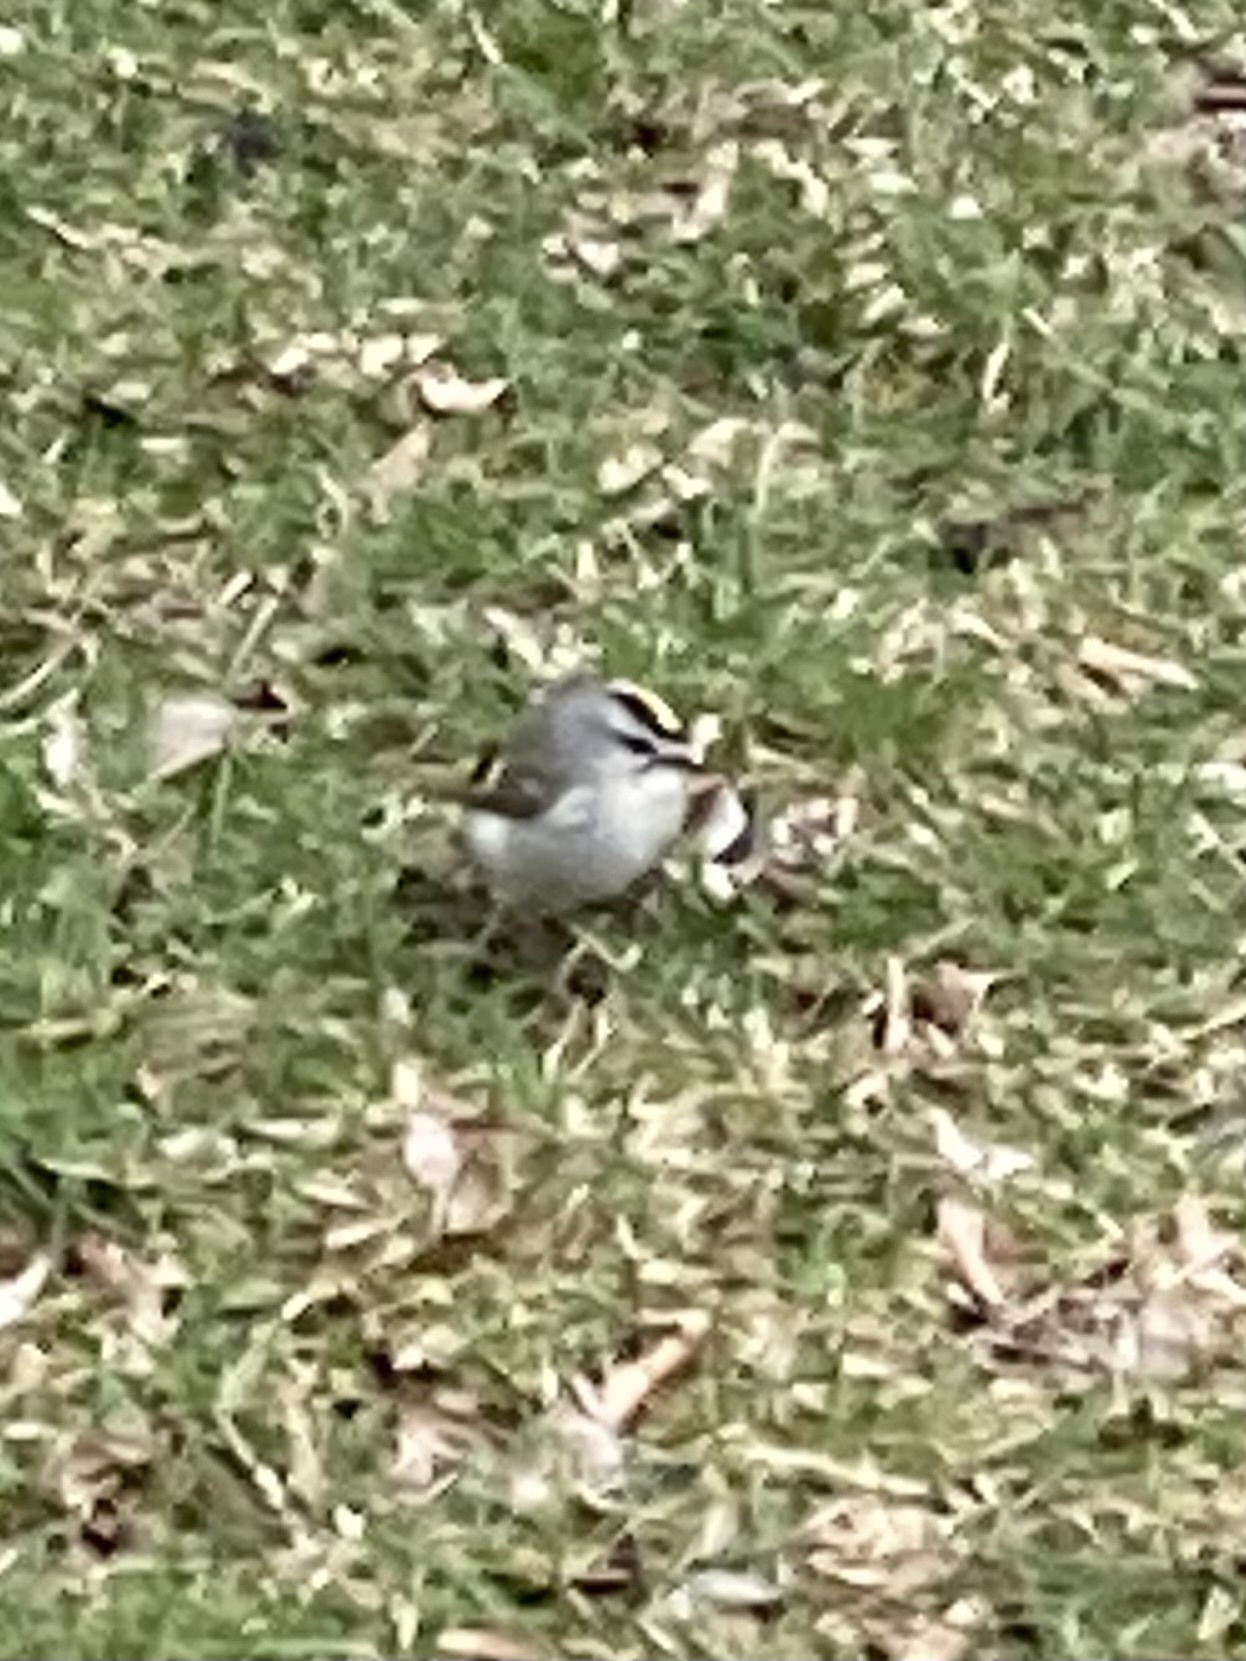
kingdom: Animalia
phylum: Chordata
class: Aves
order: Passeriformes
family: Regulidae
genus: Regulus
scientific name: Regulus satrapa
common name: Golden-crowned kinglet
